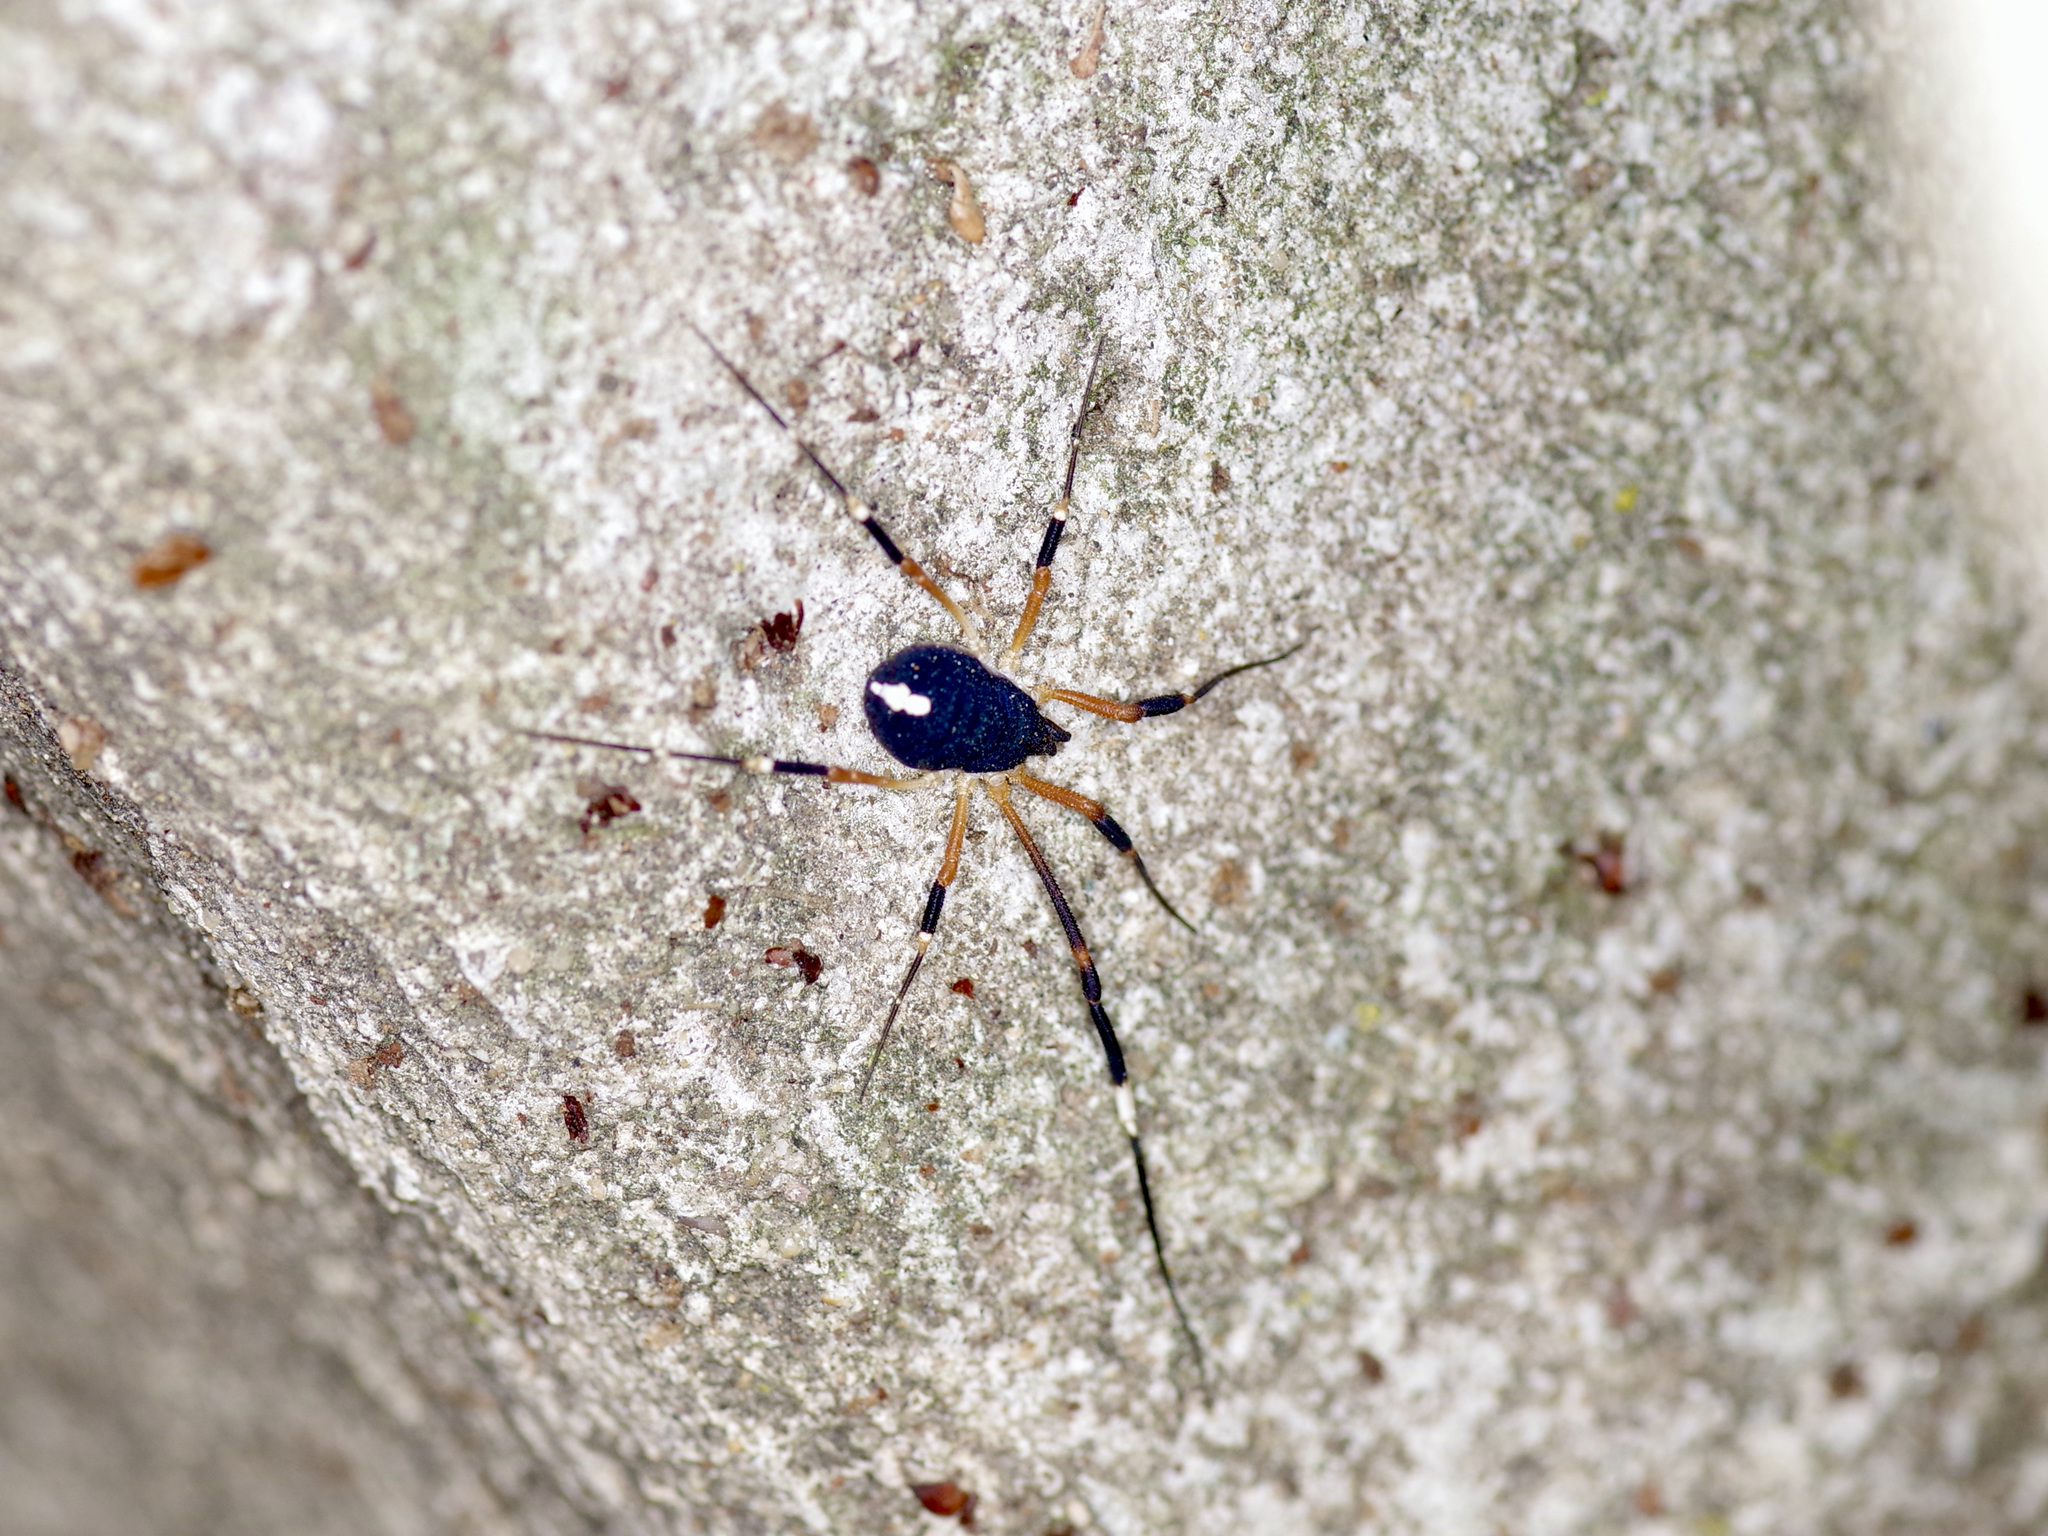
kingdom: Animalia
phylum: Arthropoda
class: Arachnida
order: Opiliones
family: Globipedidae
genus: Dalquestia
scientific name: Dalquestia formosa
